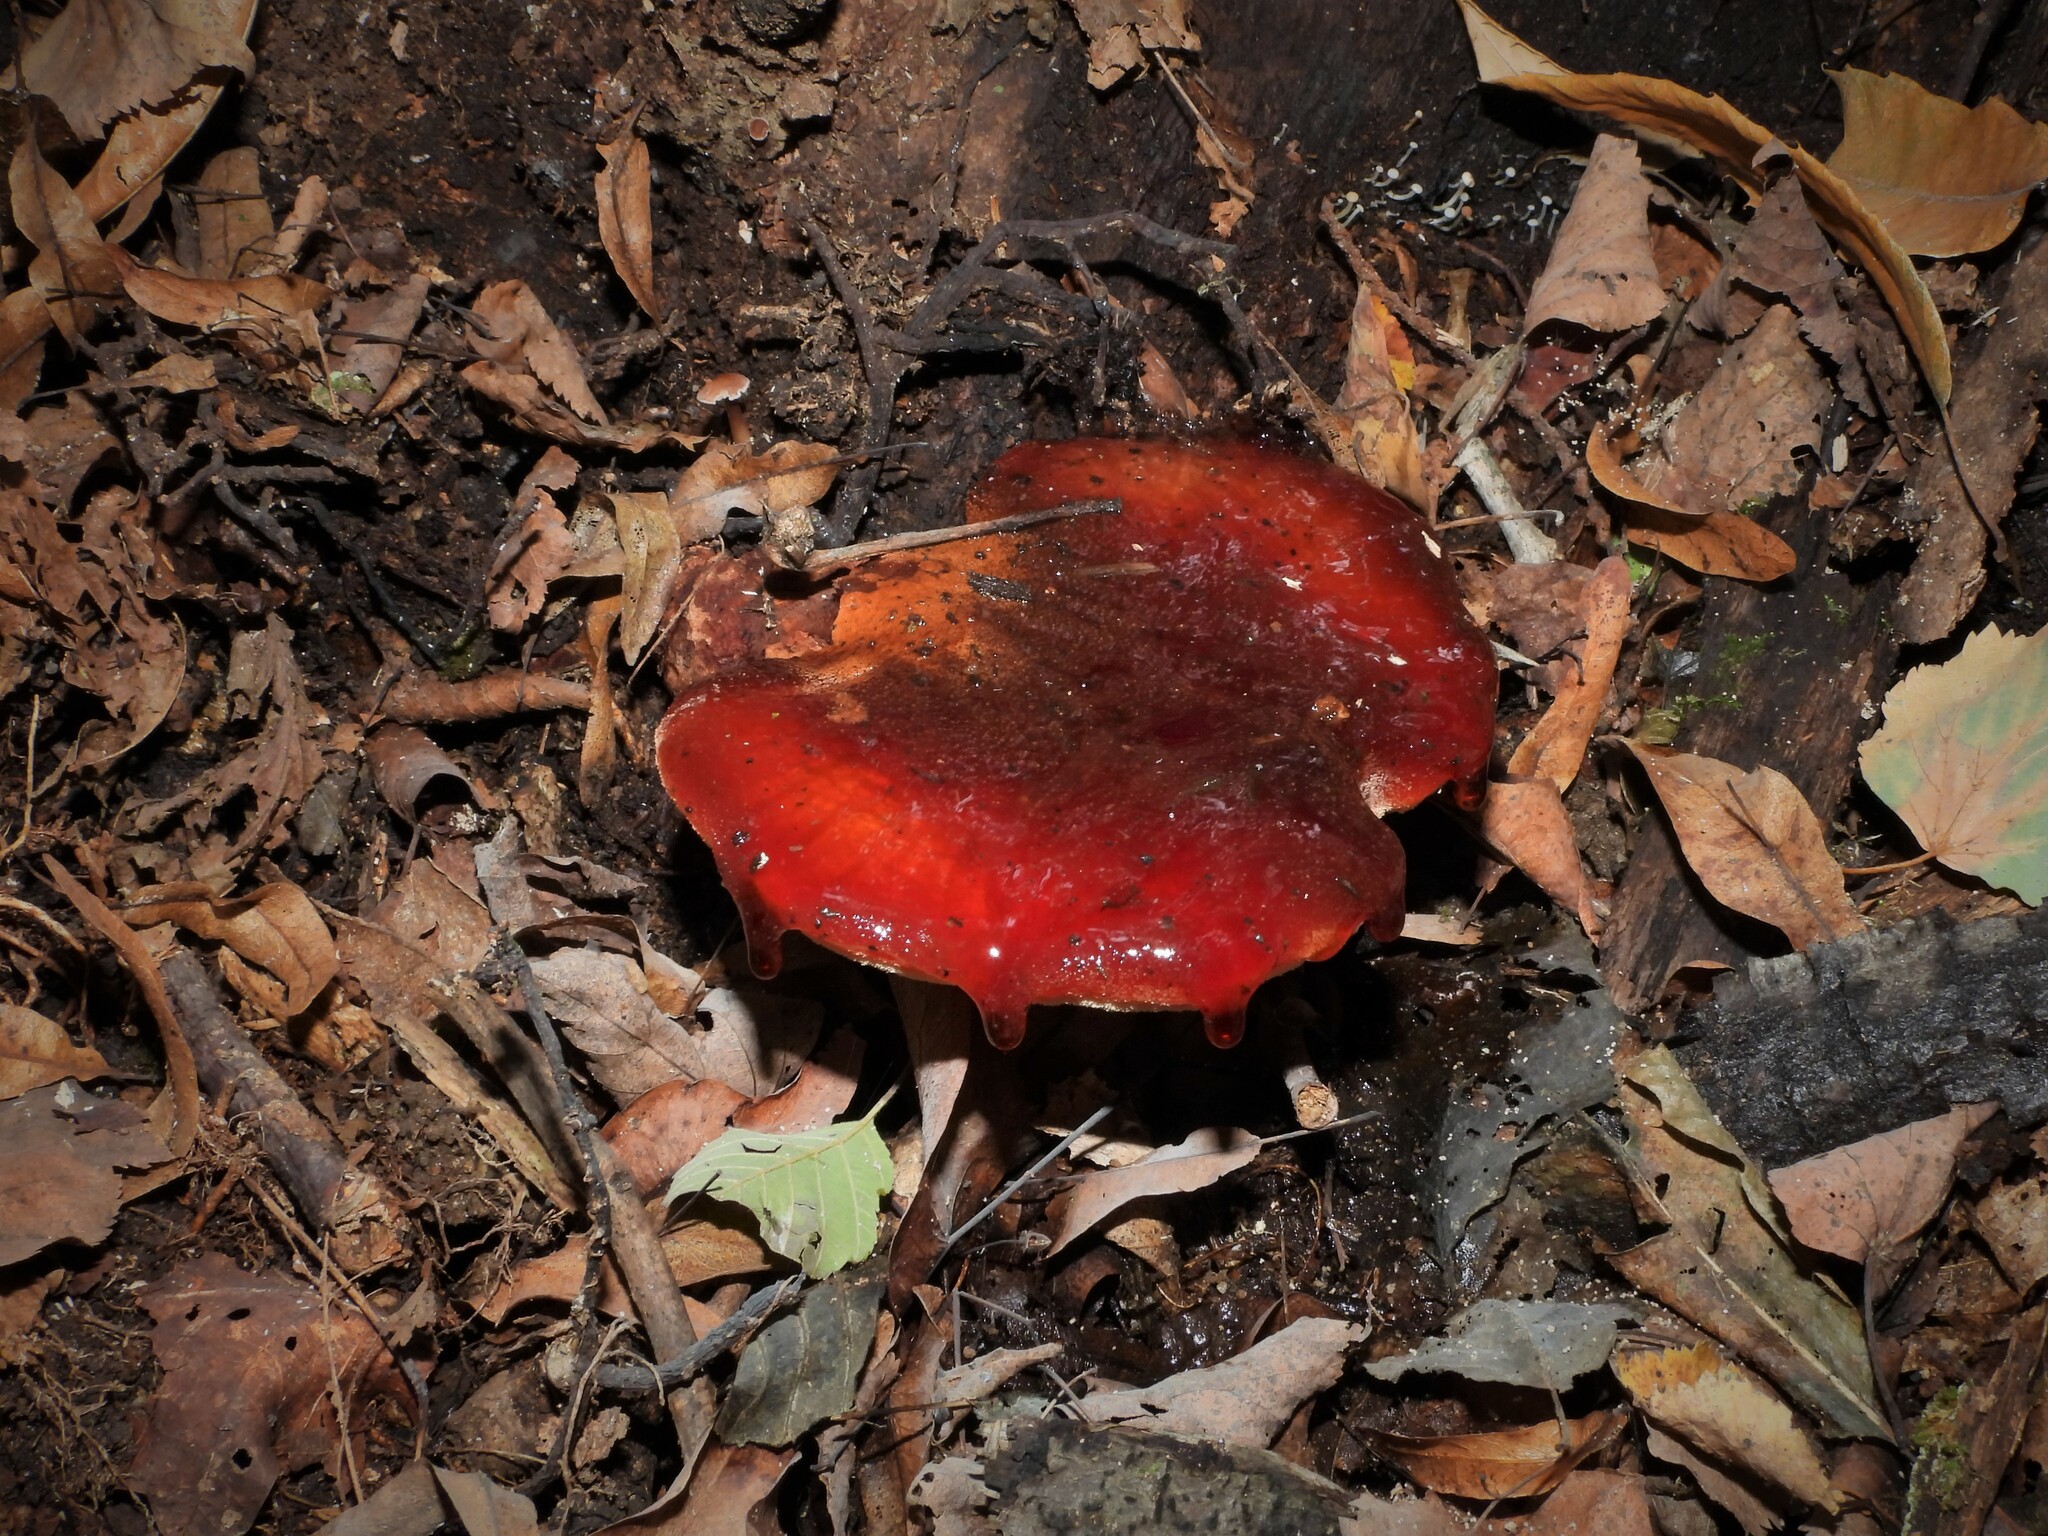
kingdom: Fungi
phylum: Basidiomycota
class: Agaricomycetes
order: Agaricales
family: Fistulinaceae
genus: Fistulina
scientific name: Fistulina hepatica
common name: Beef-steak fungus
